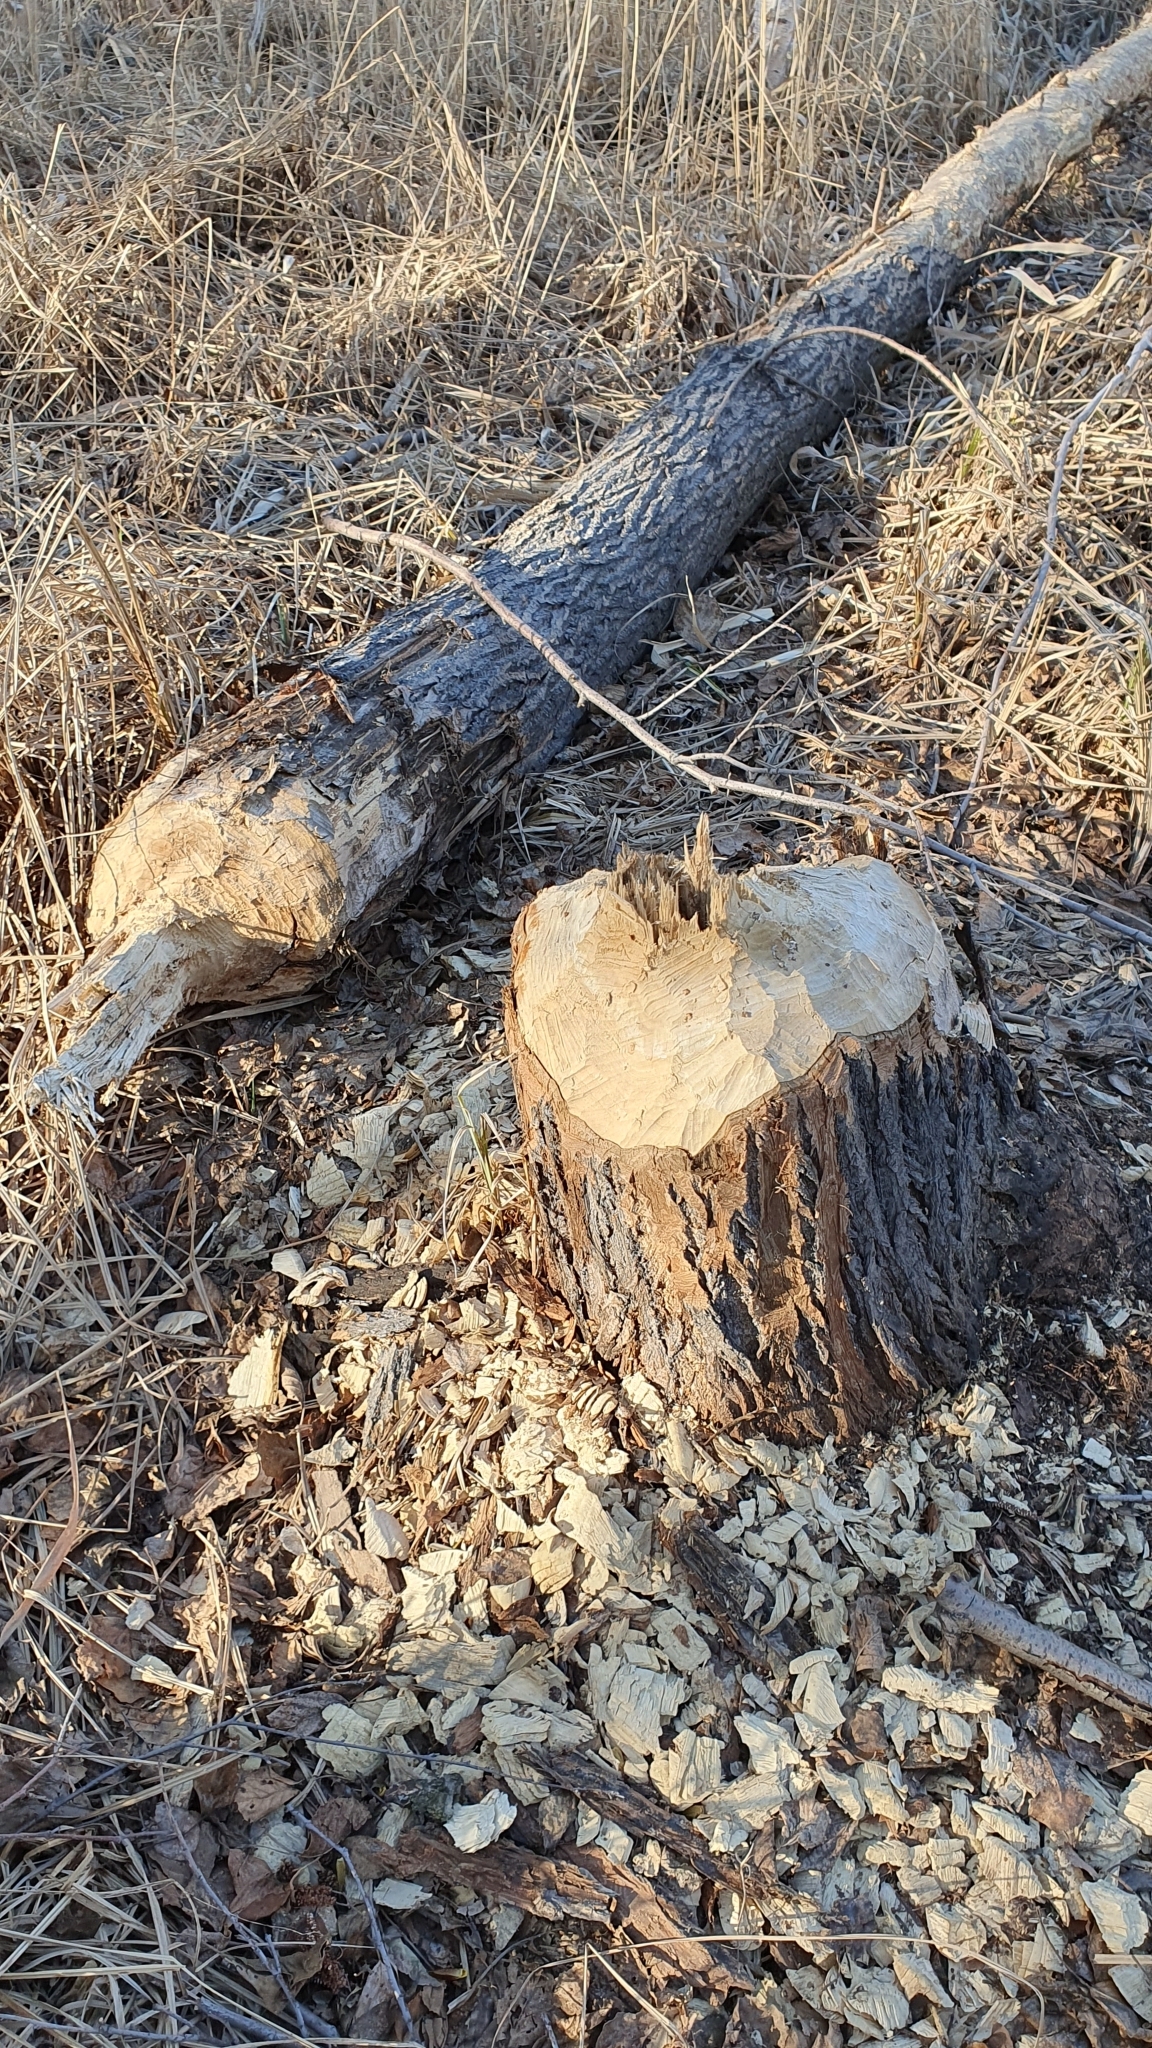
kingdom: Animalia
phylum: Chordata
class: Mammalia
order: Rodentia
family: Castoridae
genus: Castor
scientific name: Castor fiber
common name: Eurasian beaver
